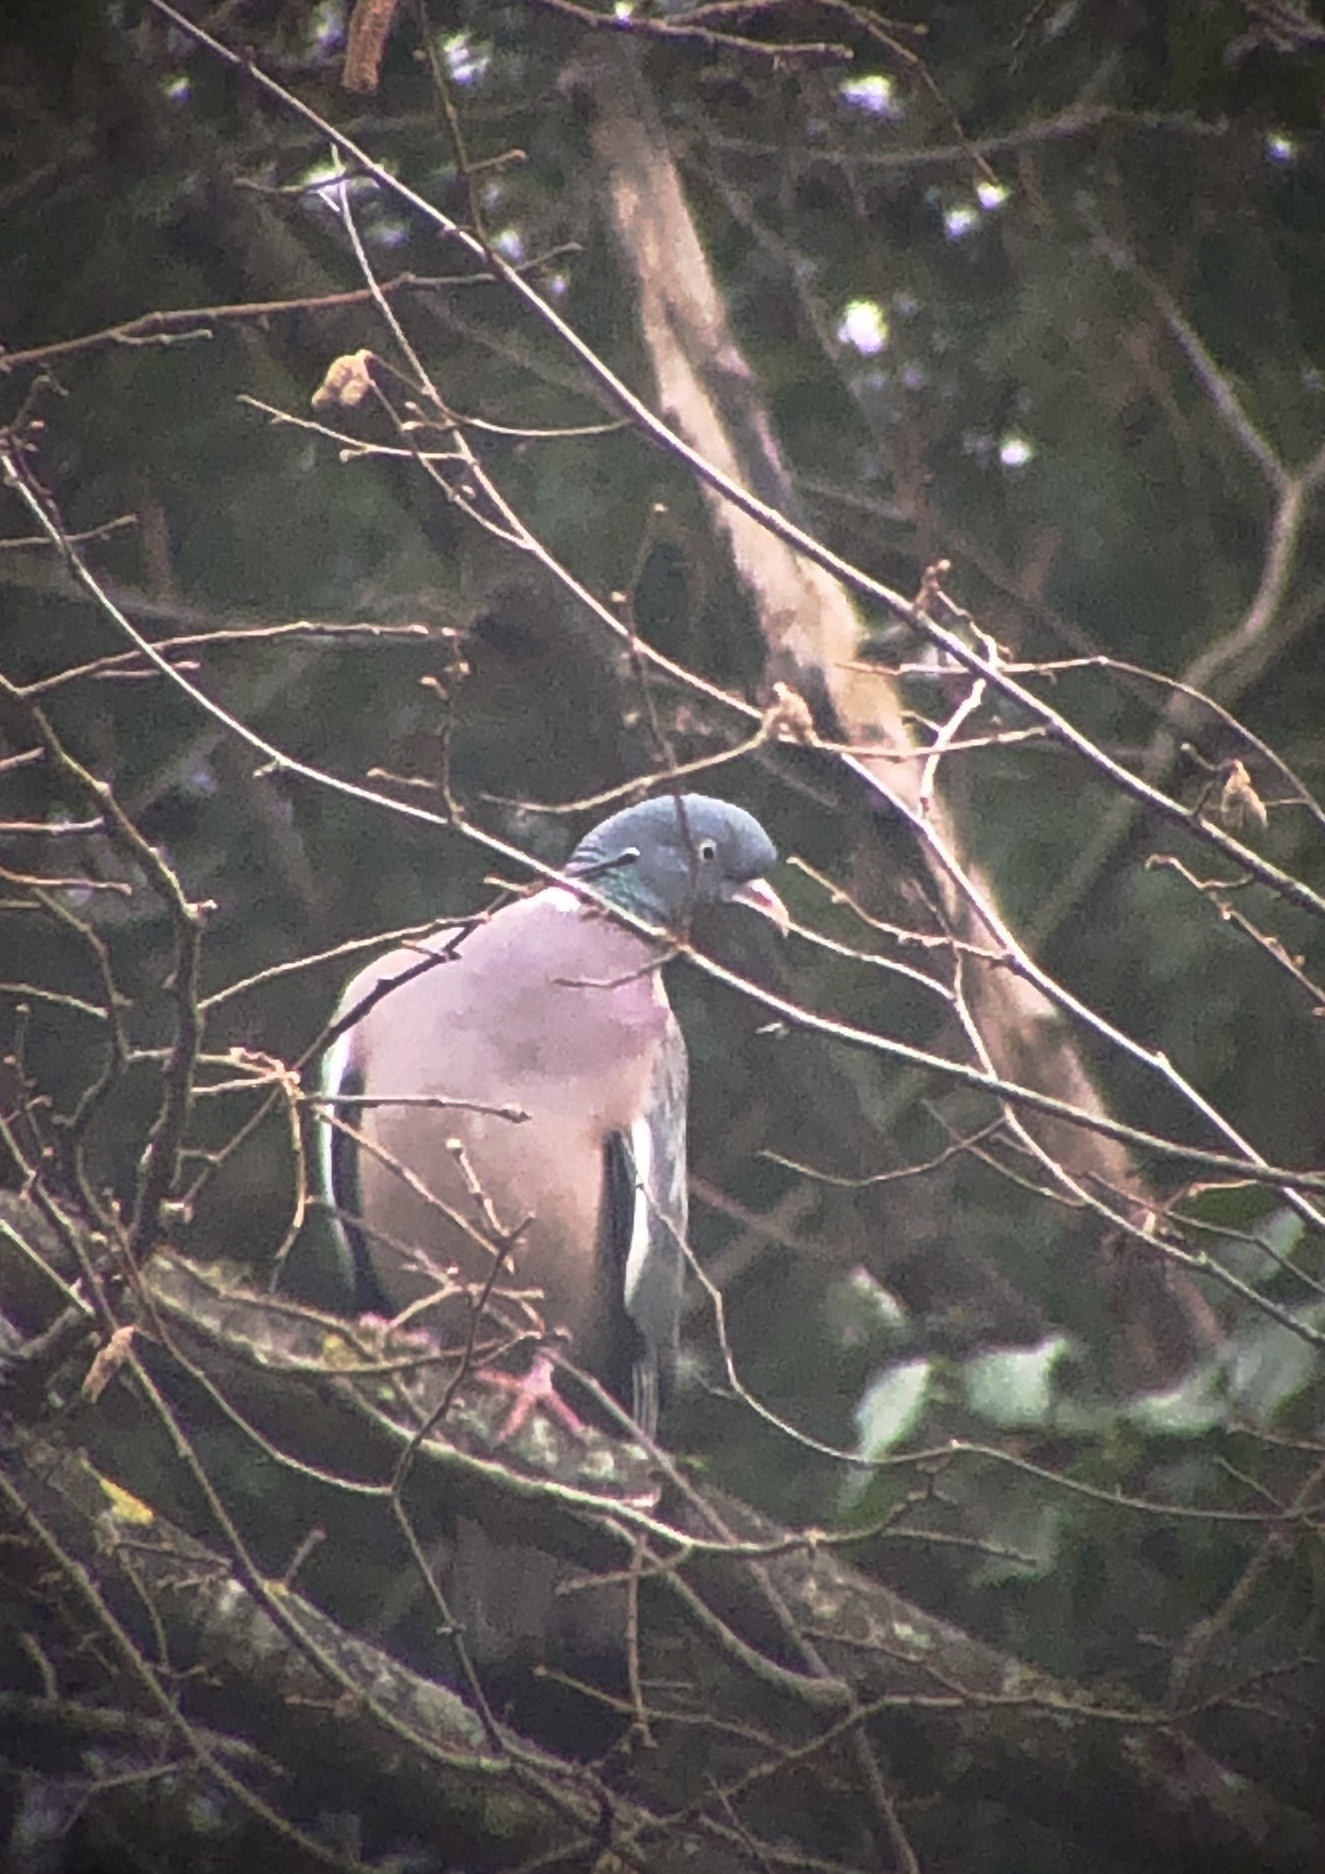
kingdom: Animalia
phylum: Chordata
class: Aves
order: Columbiformes
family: Columbidae
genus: Columba
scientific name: Columba palumbus
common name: Common wood pigeon
